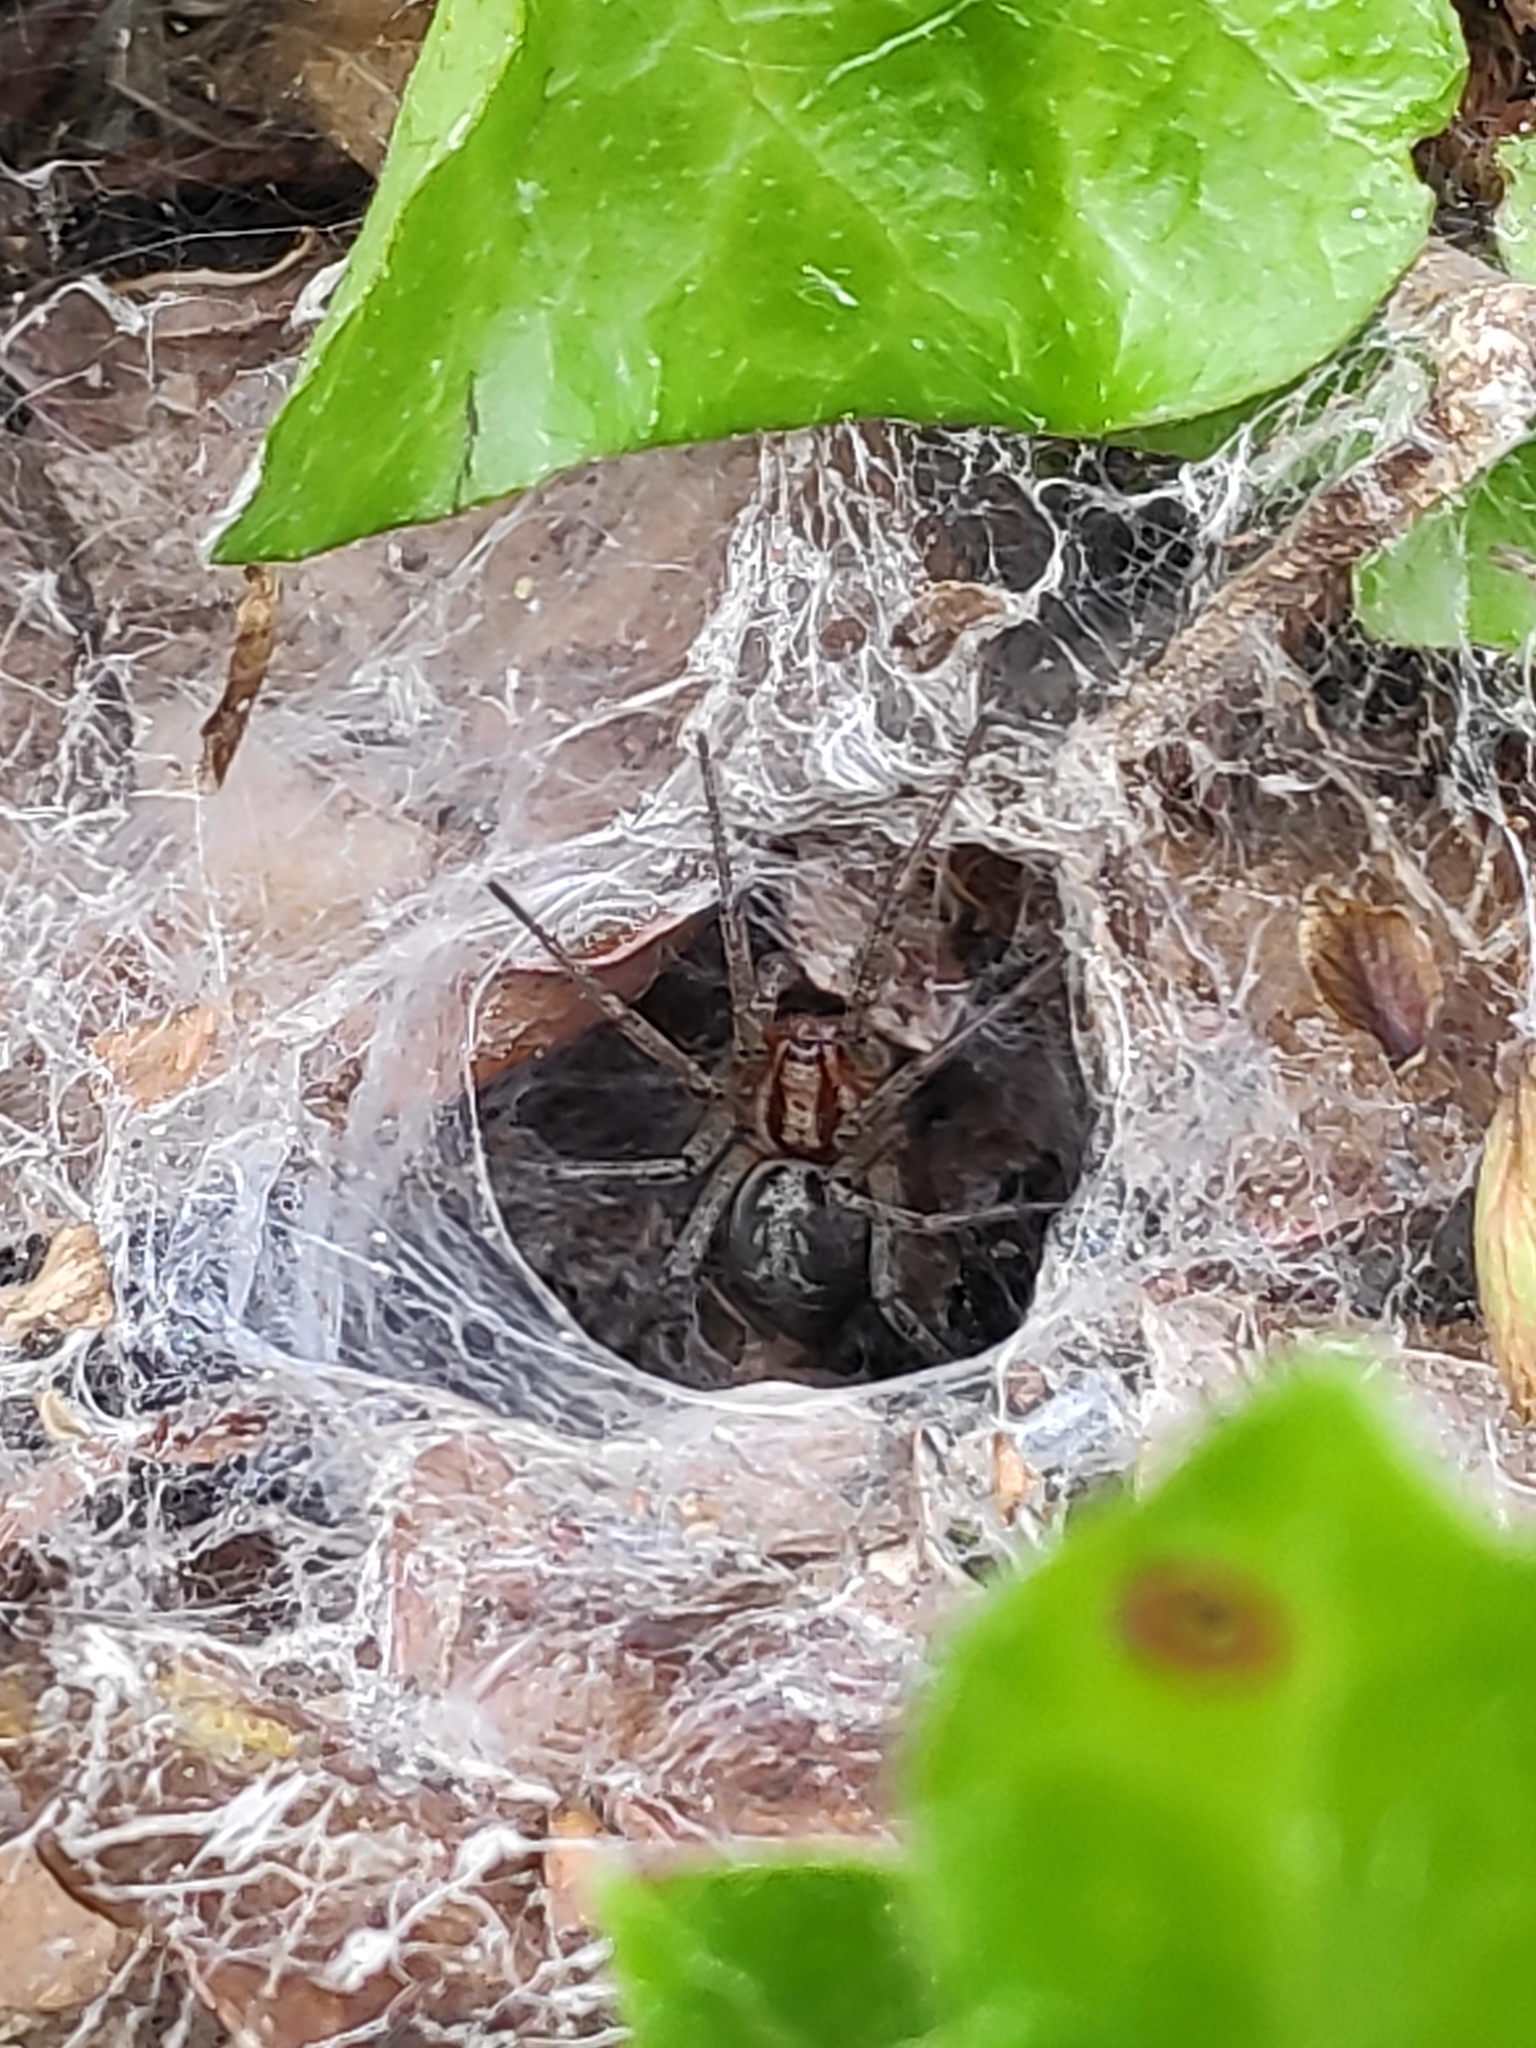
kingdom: Animalia
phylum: Arthropoda
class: Arachnida
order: Araneae
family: Agelenidae
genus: Agelena
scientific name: Agelena labyrinthica
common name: Labyrinth spider
